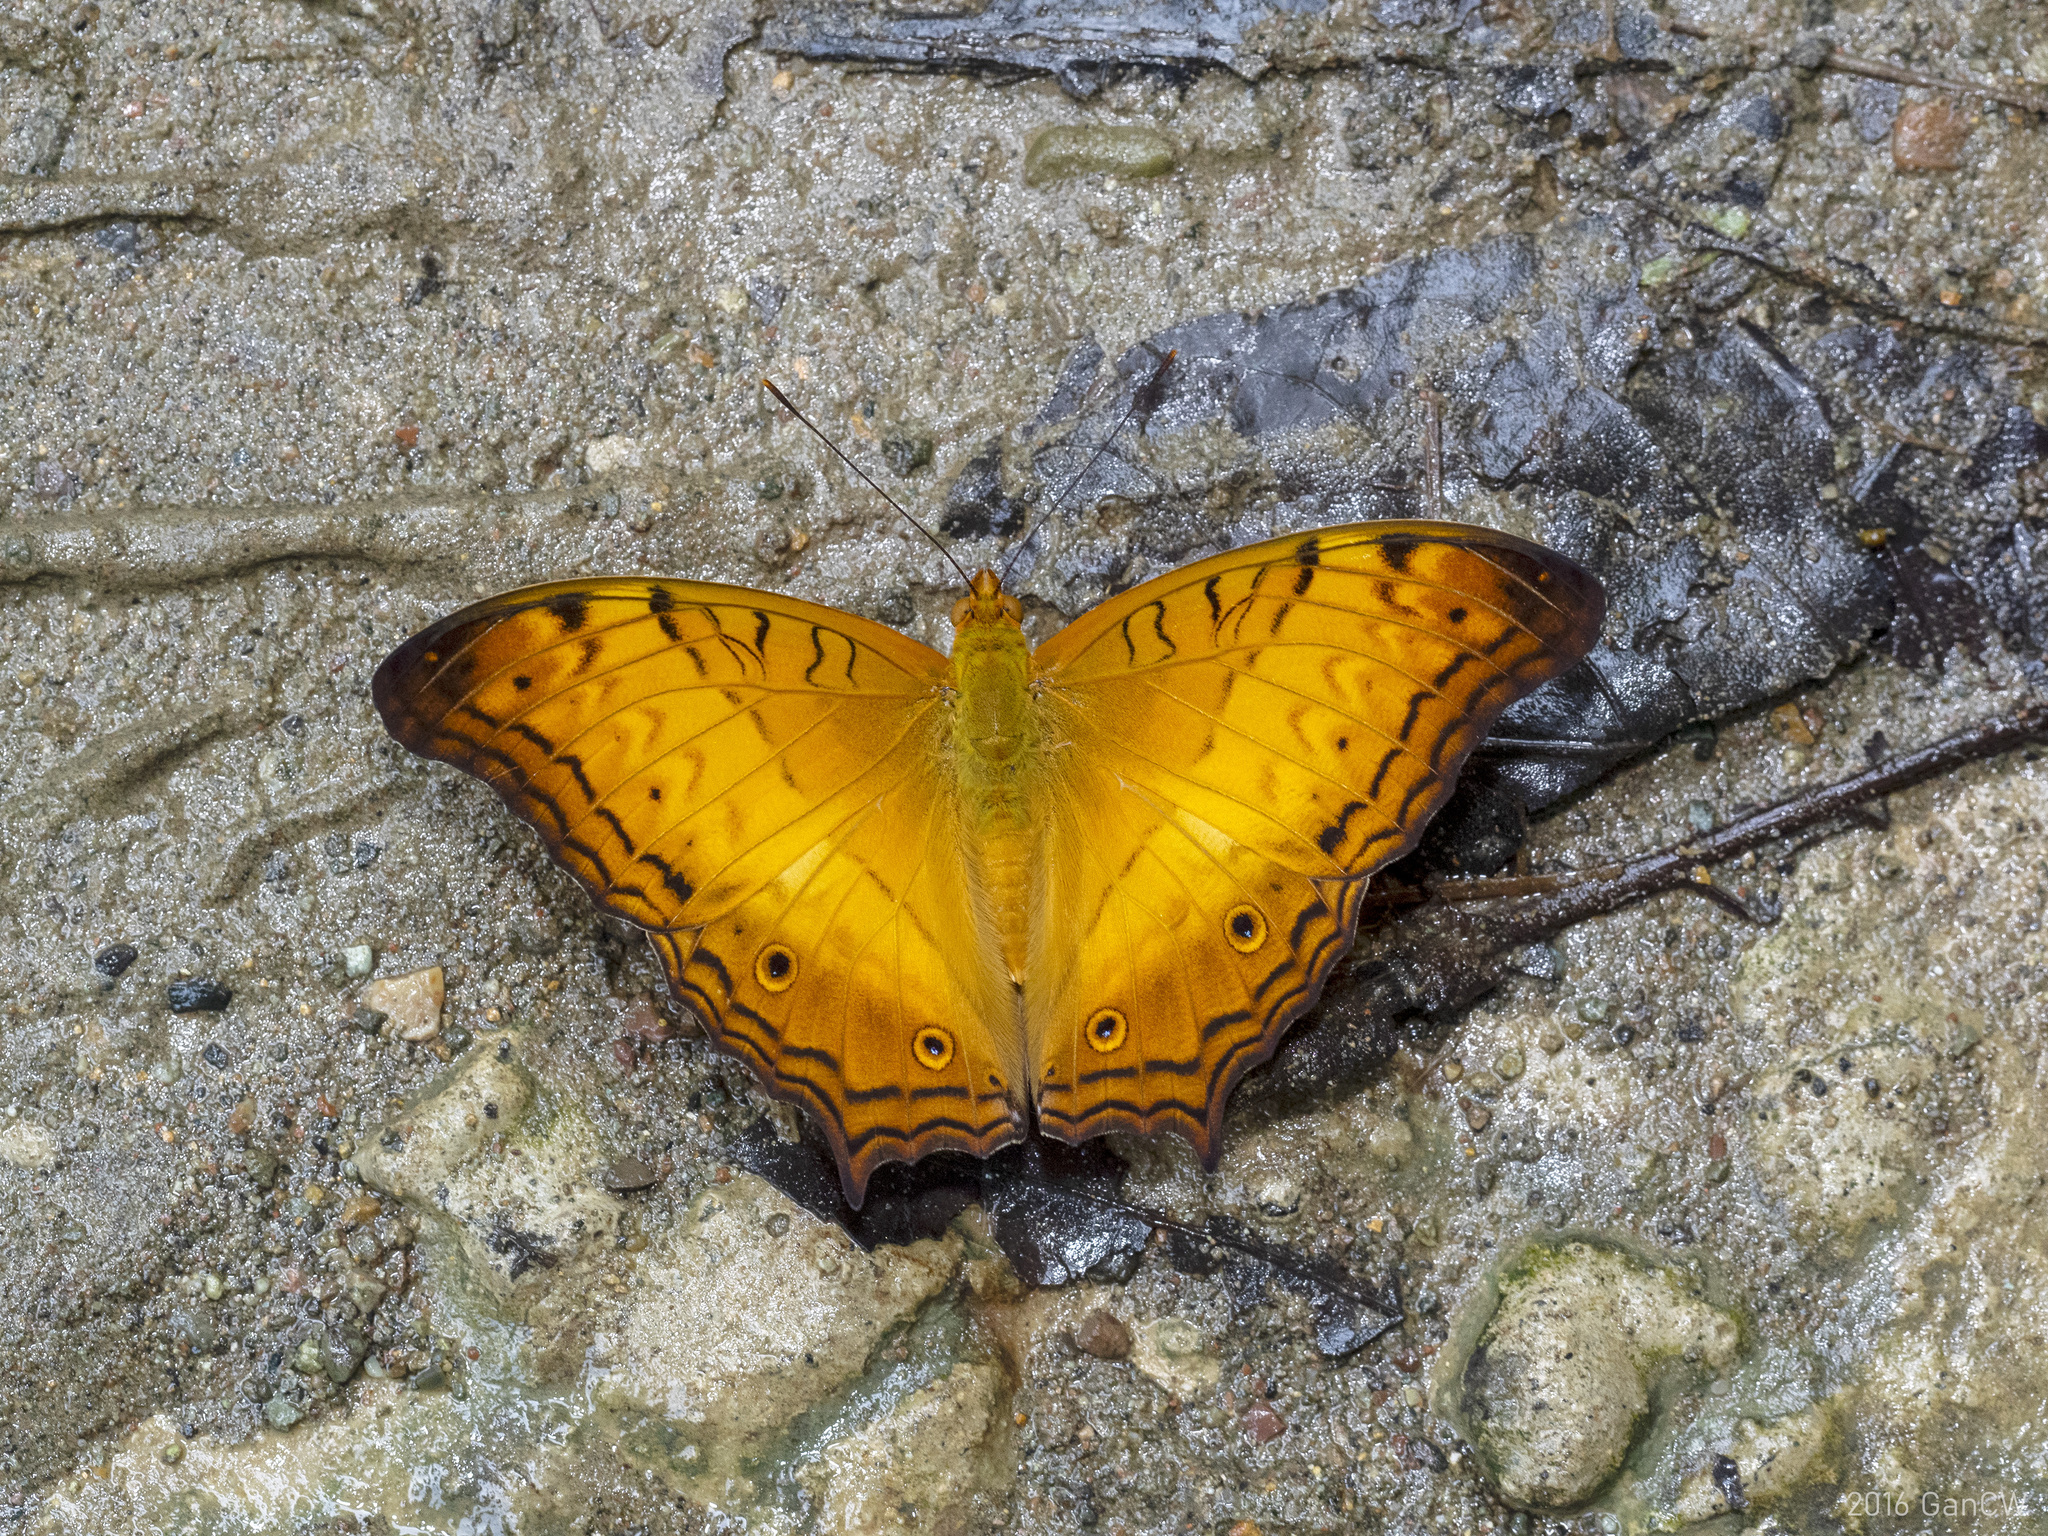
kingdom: Animalia
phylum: Arthropoda
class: Insecta
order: Lepidoptera
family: Nymphalidae
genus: Vindula
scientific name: Vindula deione
